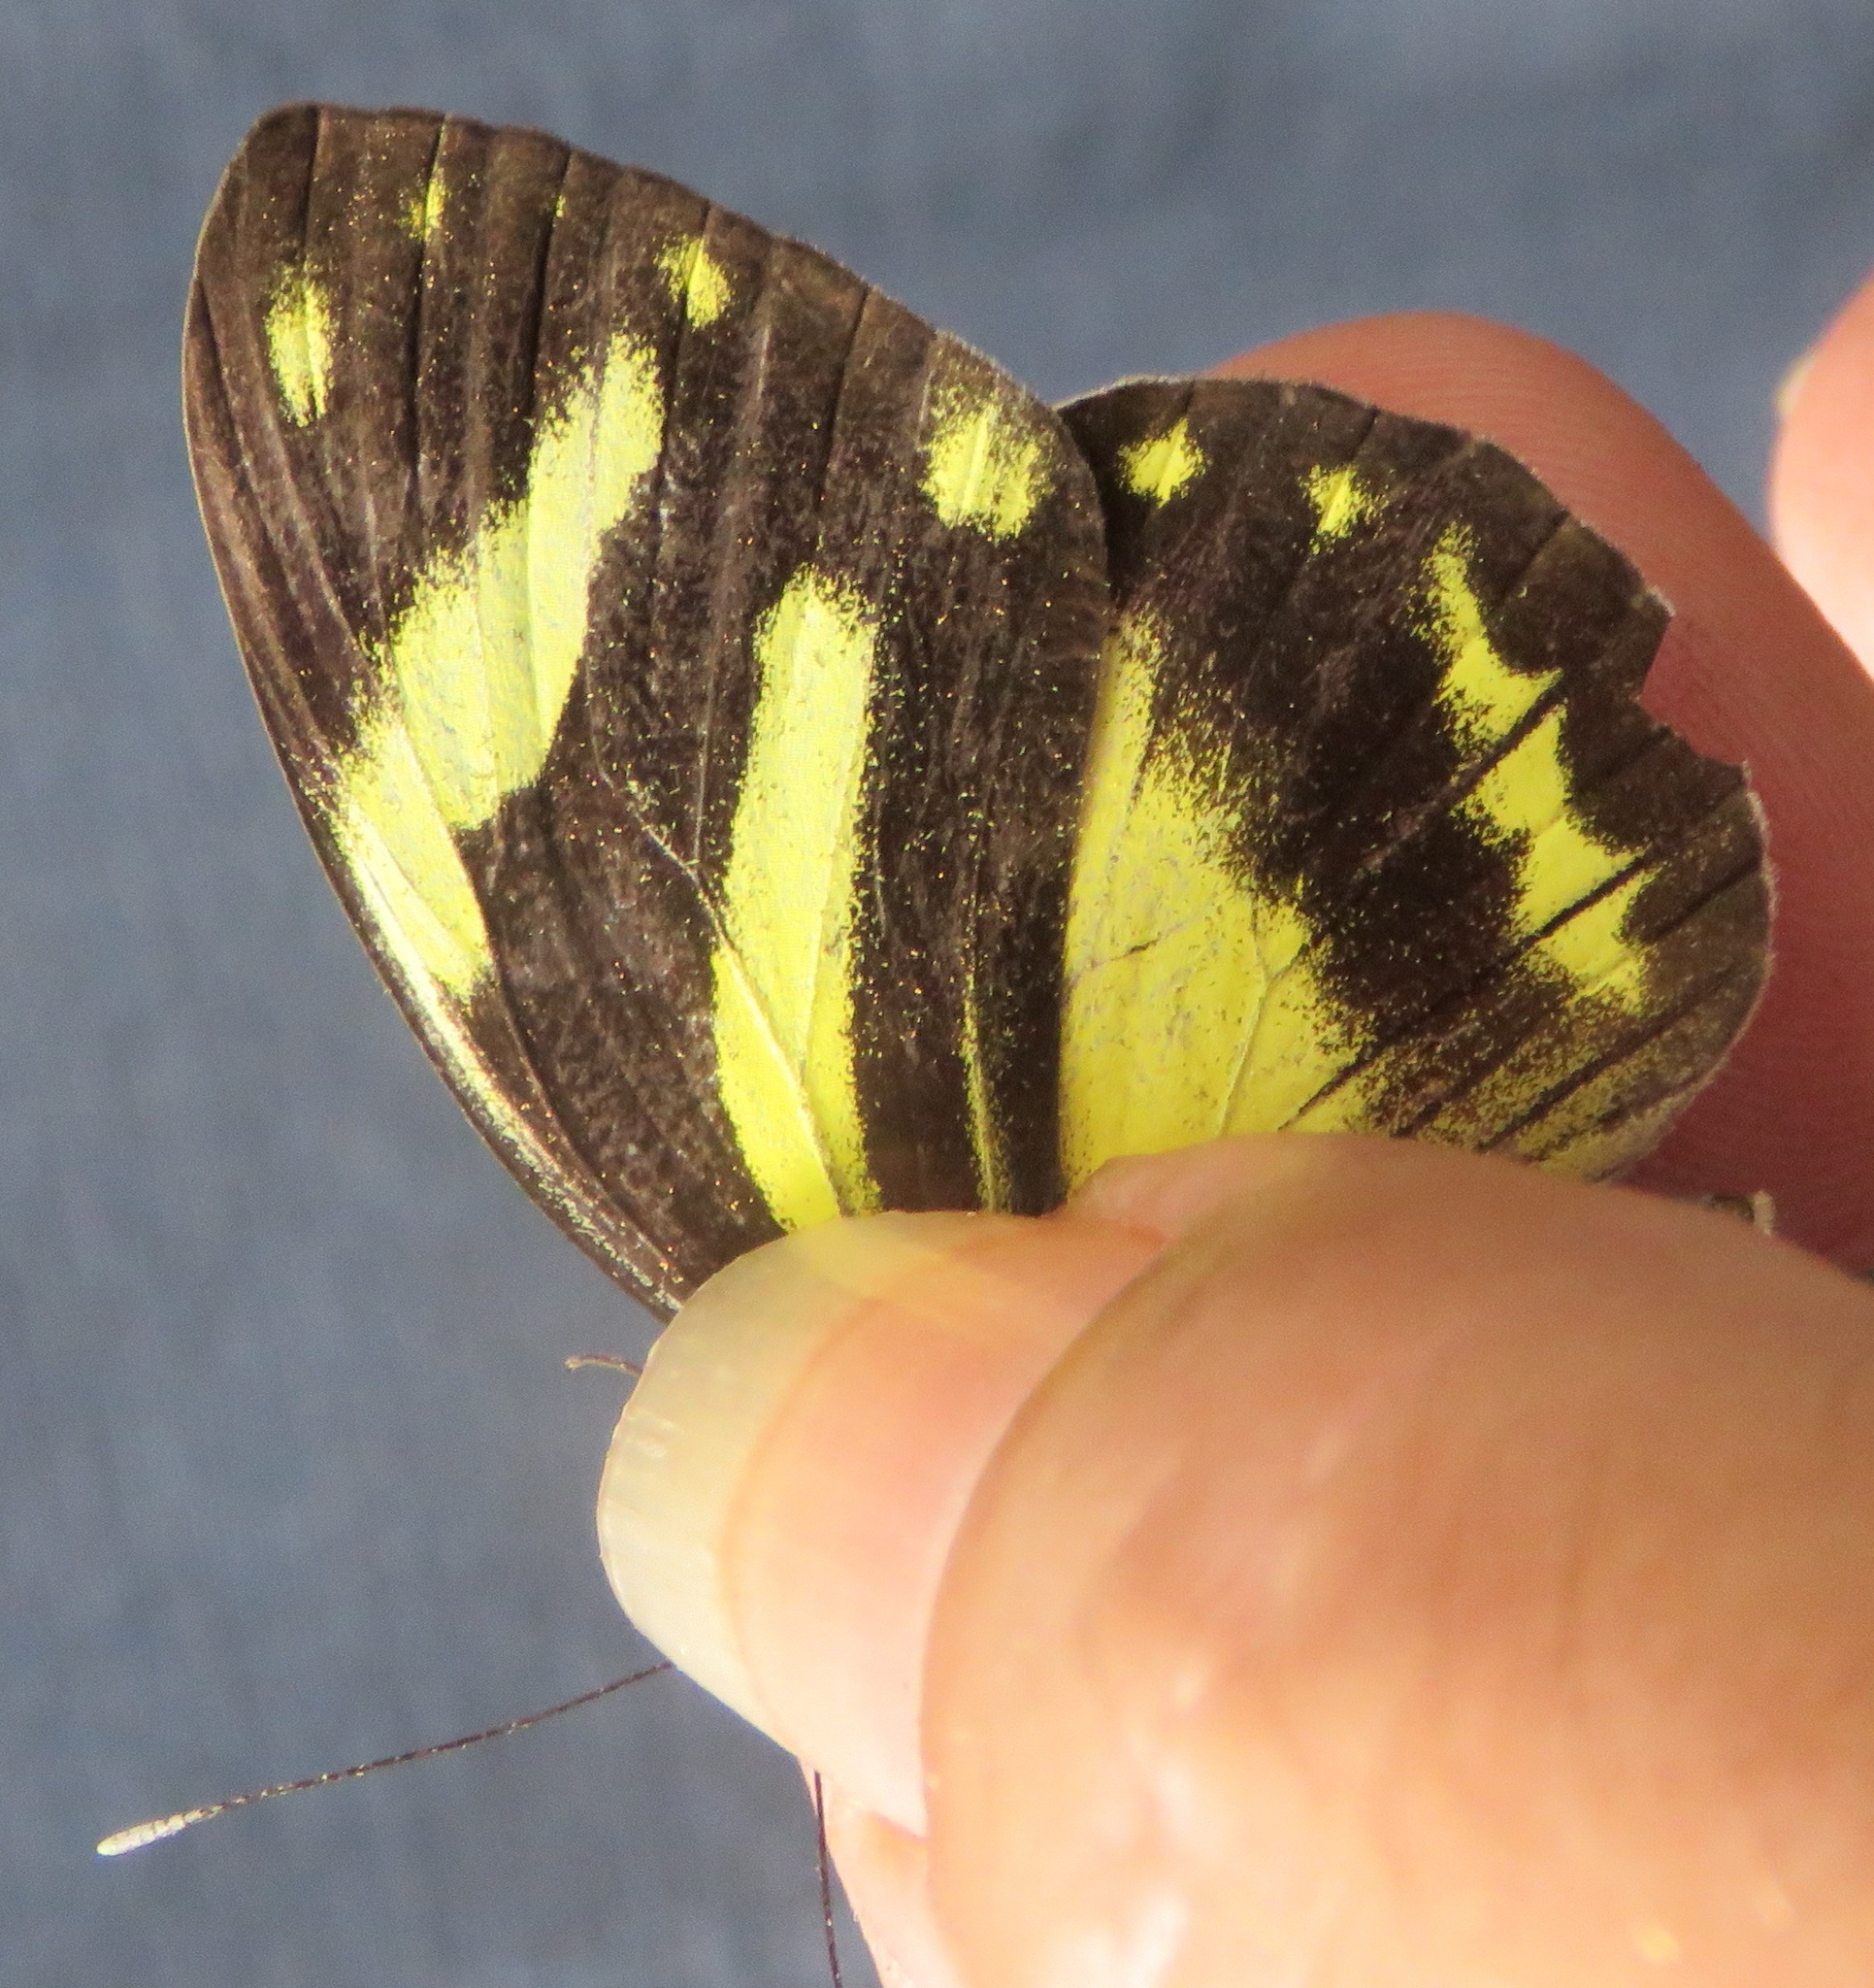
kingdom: Animalia
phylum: Arthropoda
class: Insecta
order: Lepidoptera
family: Pieridae
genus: Pieriballia
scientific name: Pieriballia viardi
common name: Painted white
